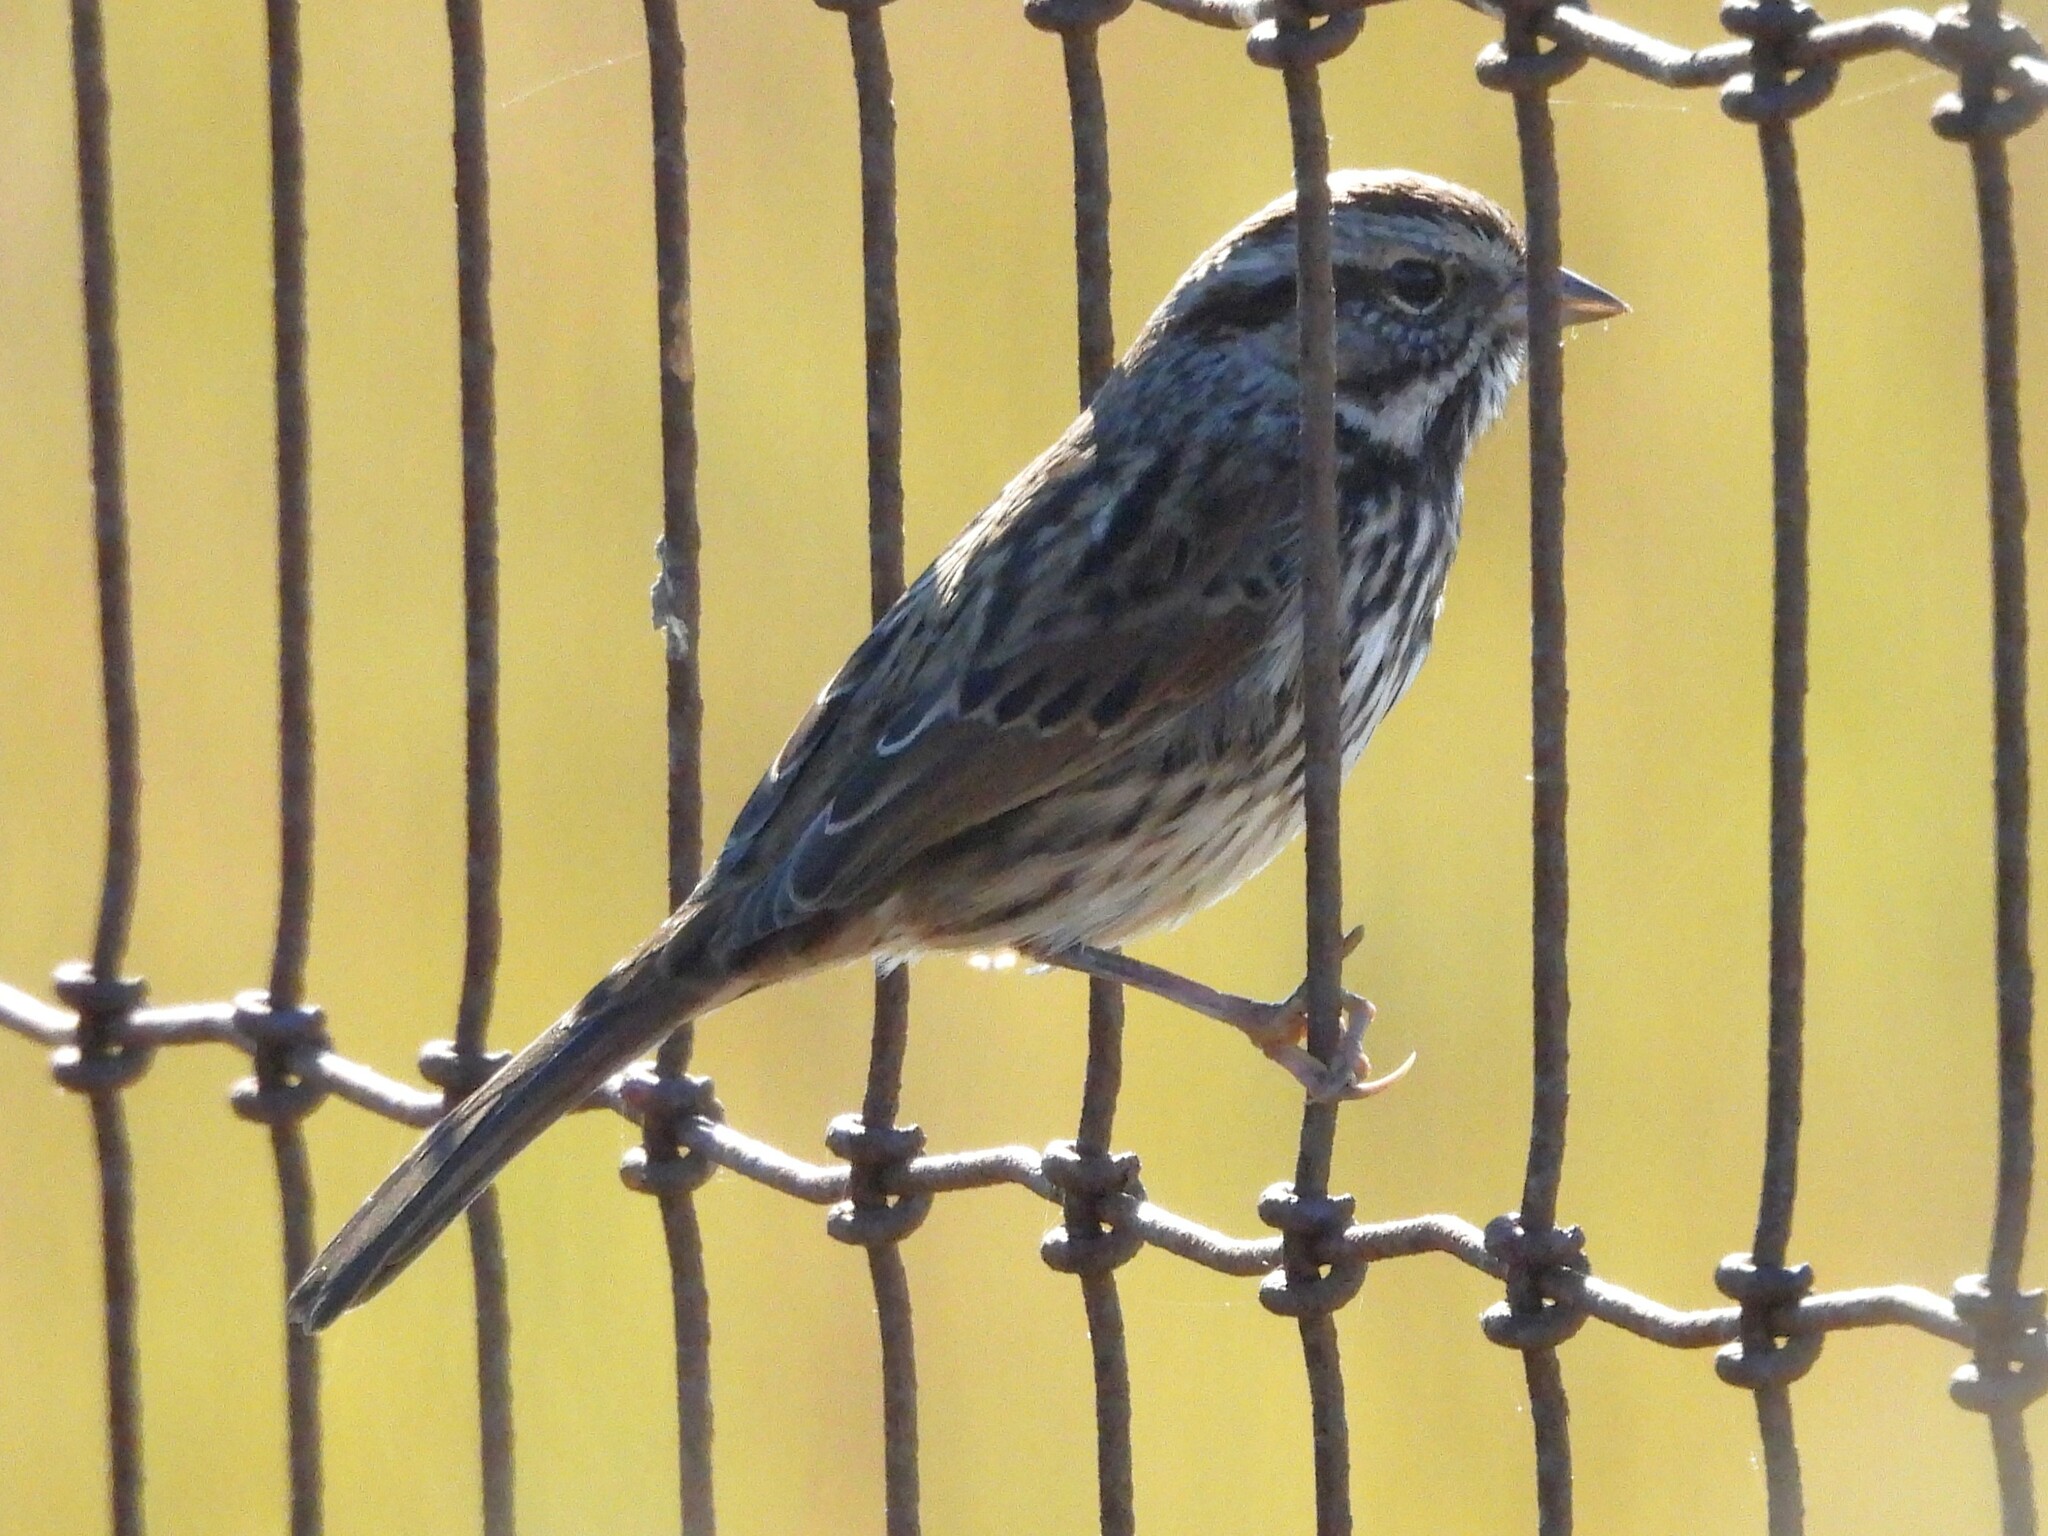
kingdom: Animalia
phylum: Chordata
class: Aves
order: Passeriformes
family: Passerellidae
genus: Melospiza
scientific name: Melospiza melodia
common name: Song sparrow
